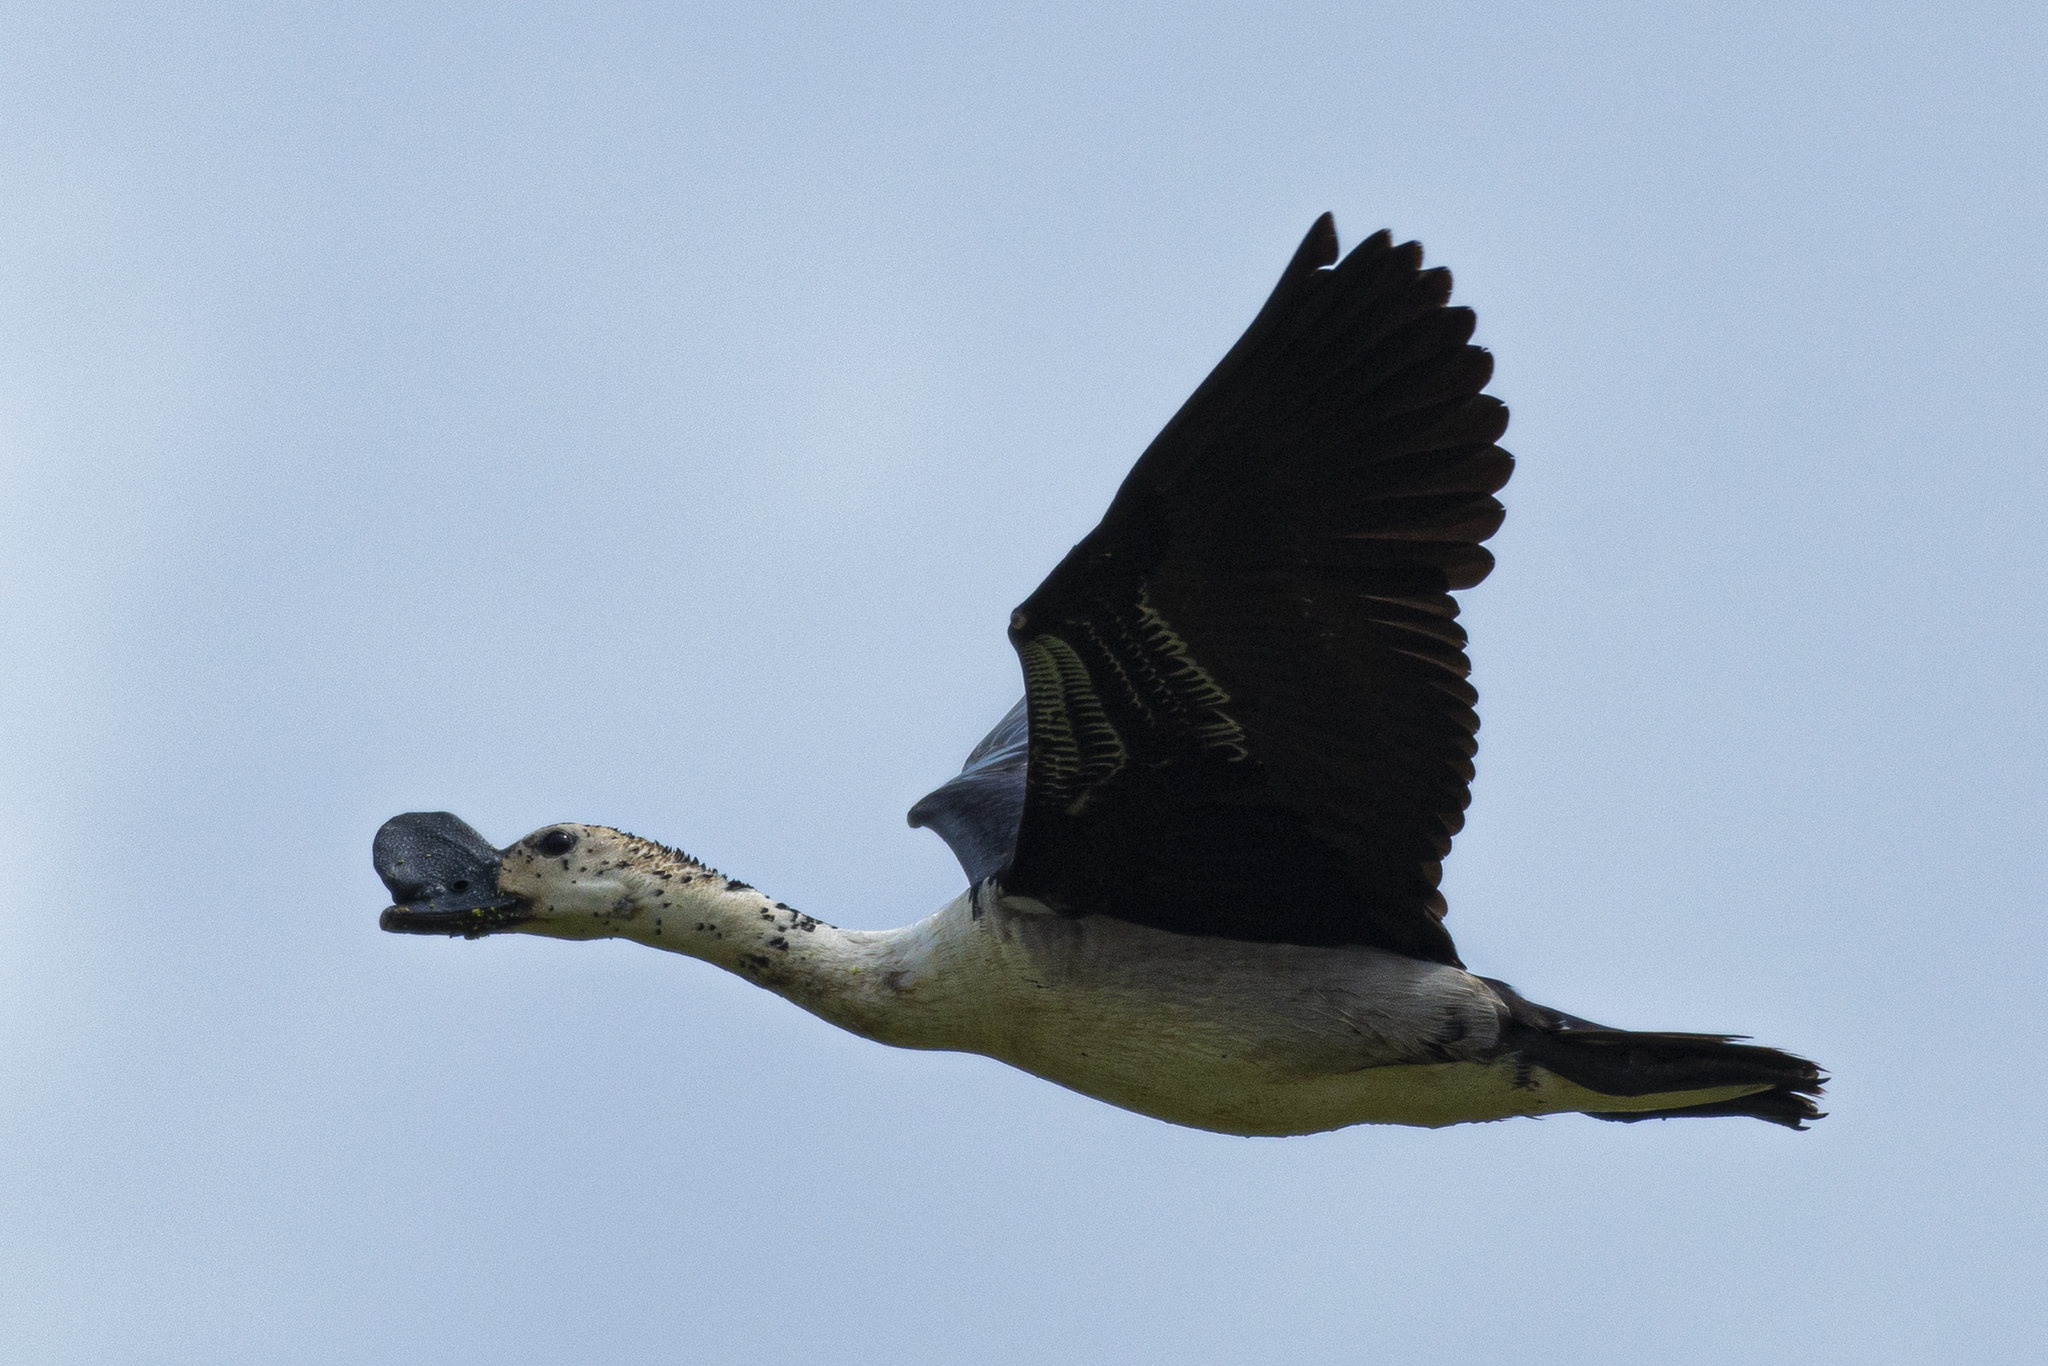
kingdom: Animalia
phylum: Chordata
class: Aves
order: Anseriformes
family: Anatidae
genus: Sarkidiornis
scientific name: Sarkidiornis melanotos
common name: Comb duck
